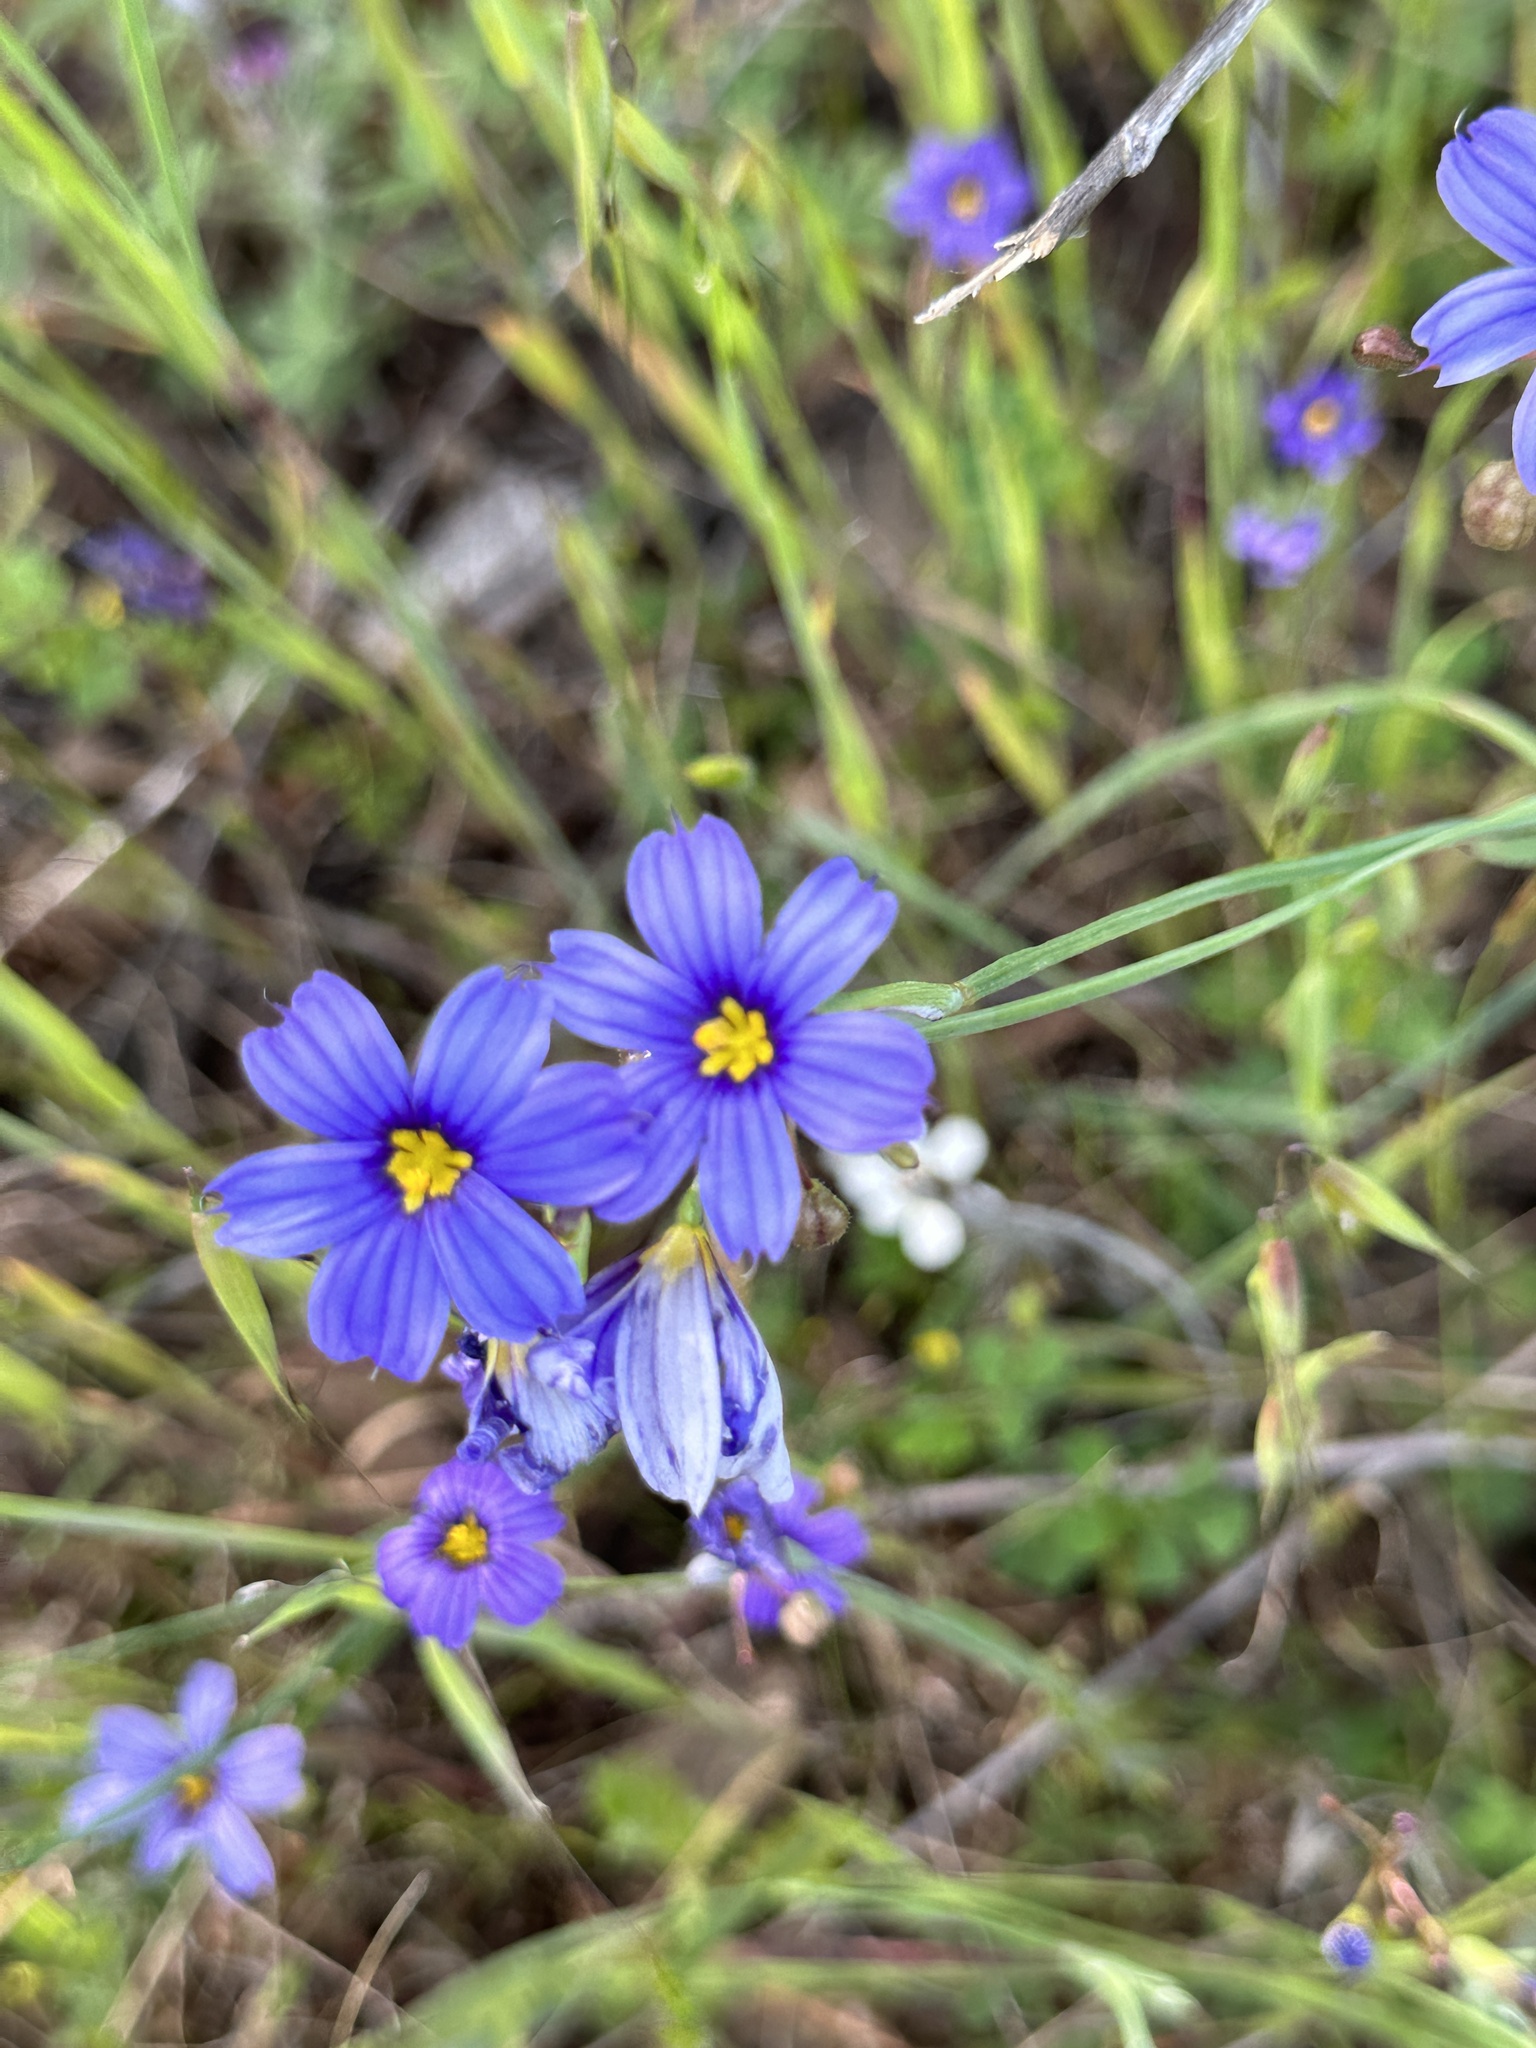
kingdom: Plantae
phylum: Tracheophyta
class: Liliopsida
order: Asparagales
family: Iridaceae
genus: Sisyrinchium
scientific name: Sisyrinchium bellum
